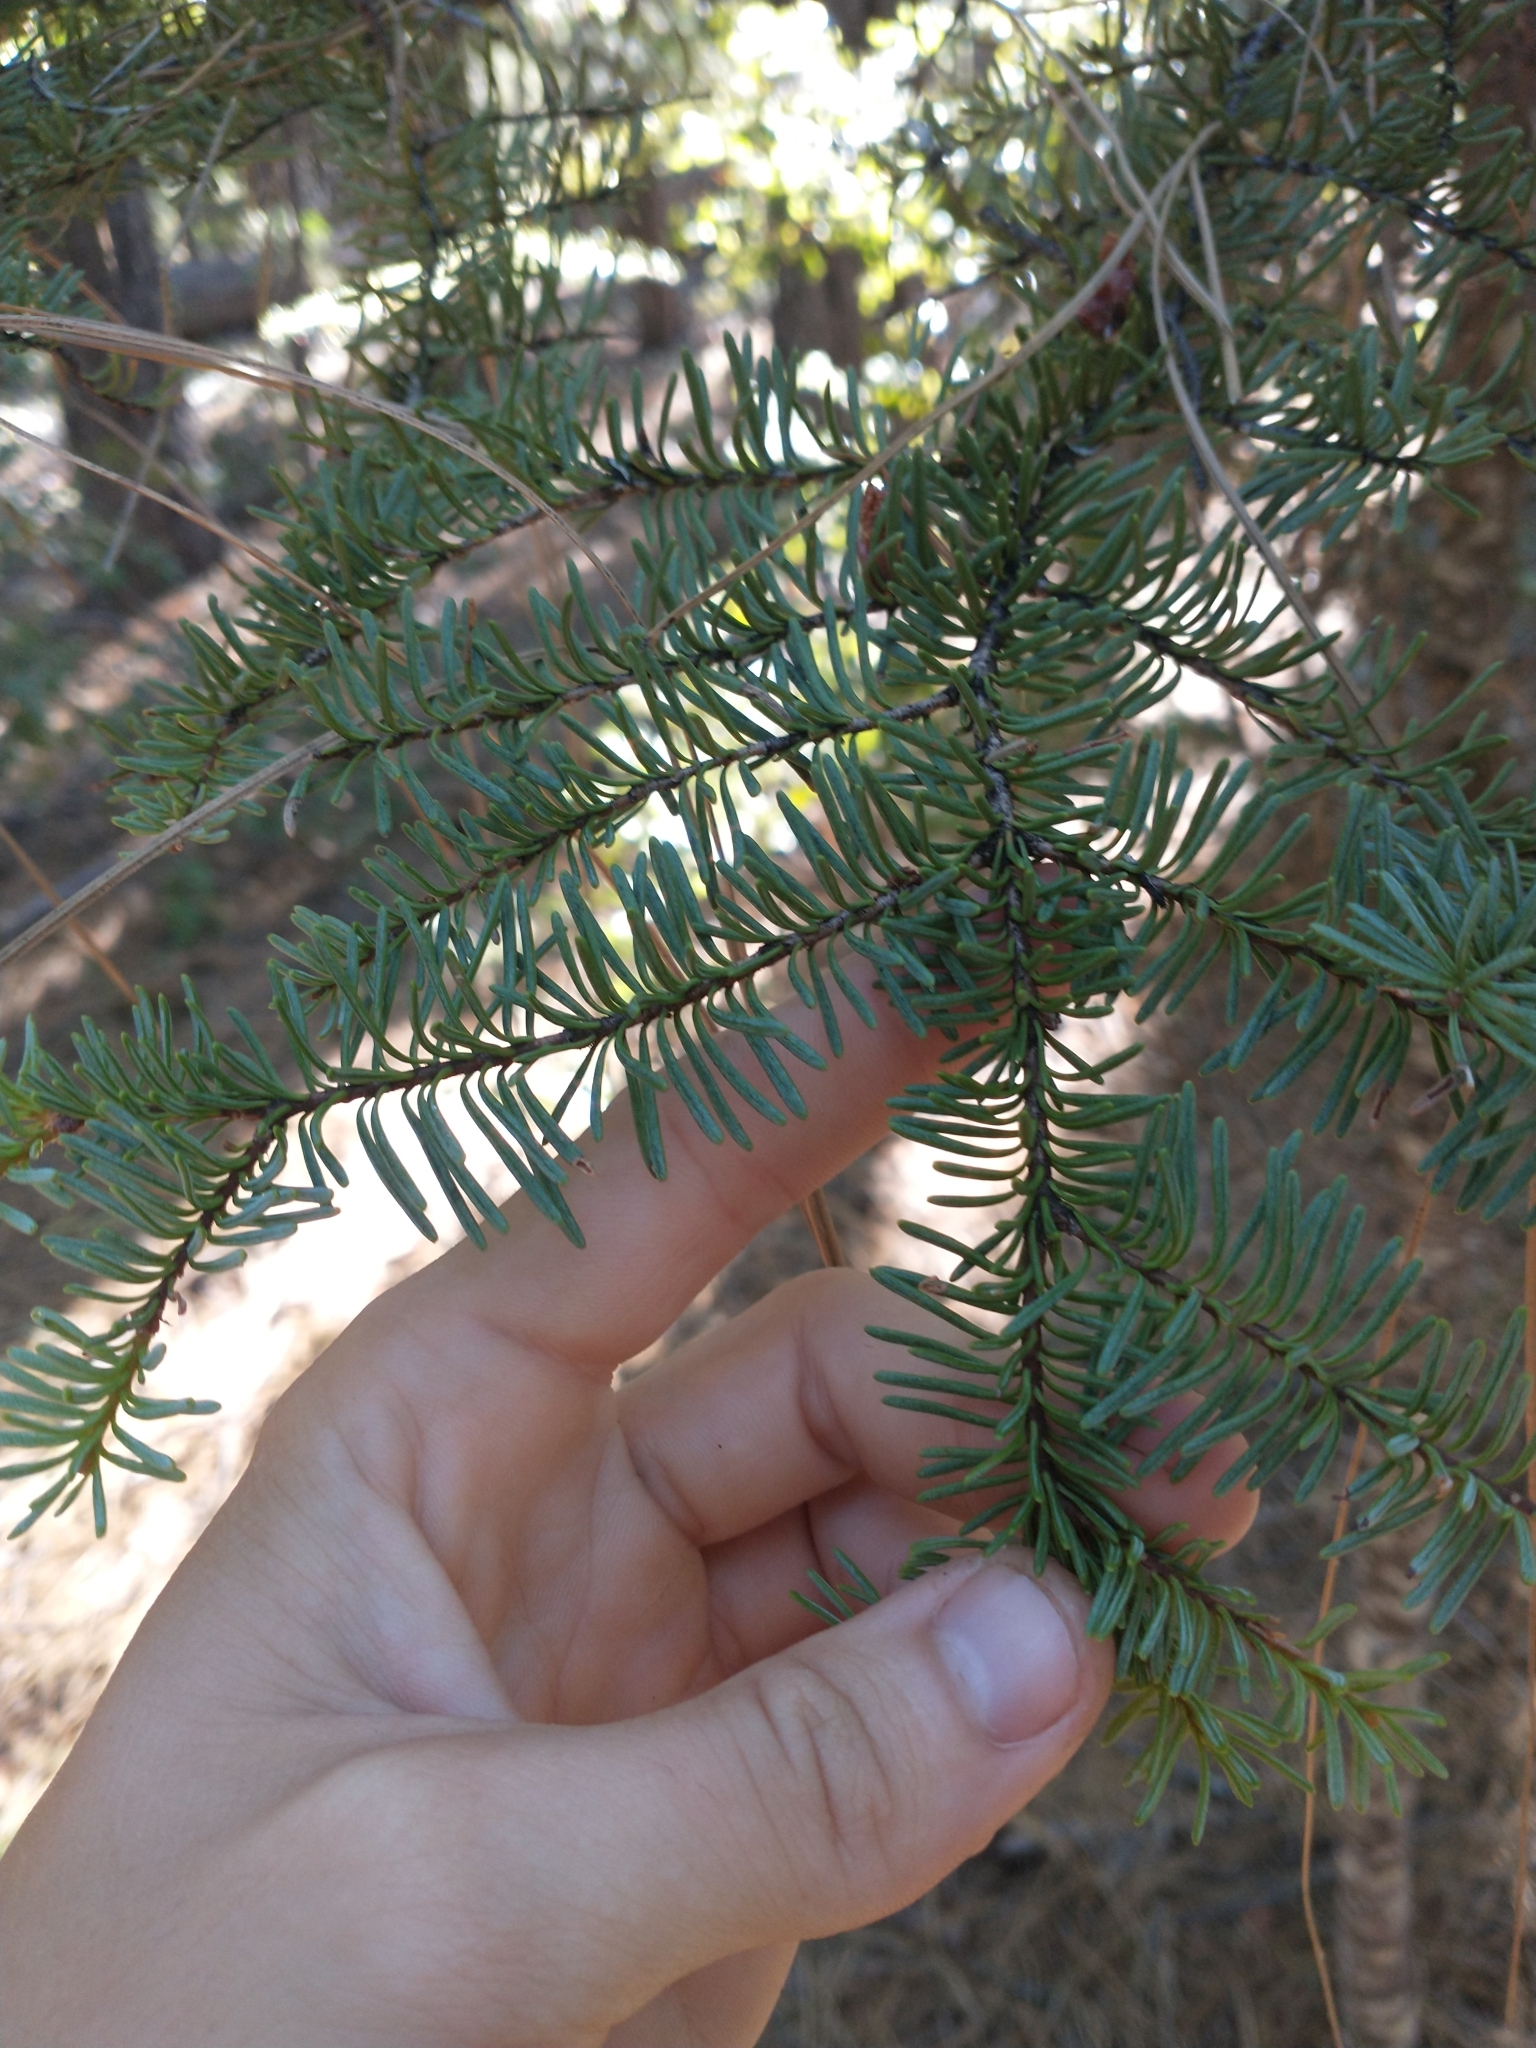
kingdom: Plantae
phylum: Tracheophyta
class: Pinopsida
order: Pinales
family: Pinaceae
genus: Abies
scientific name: Abies magnifica bis
